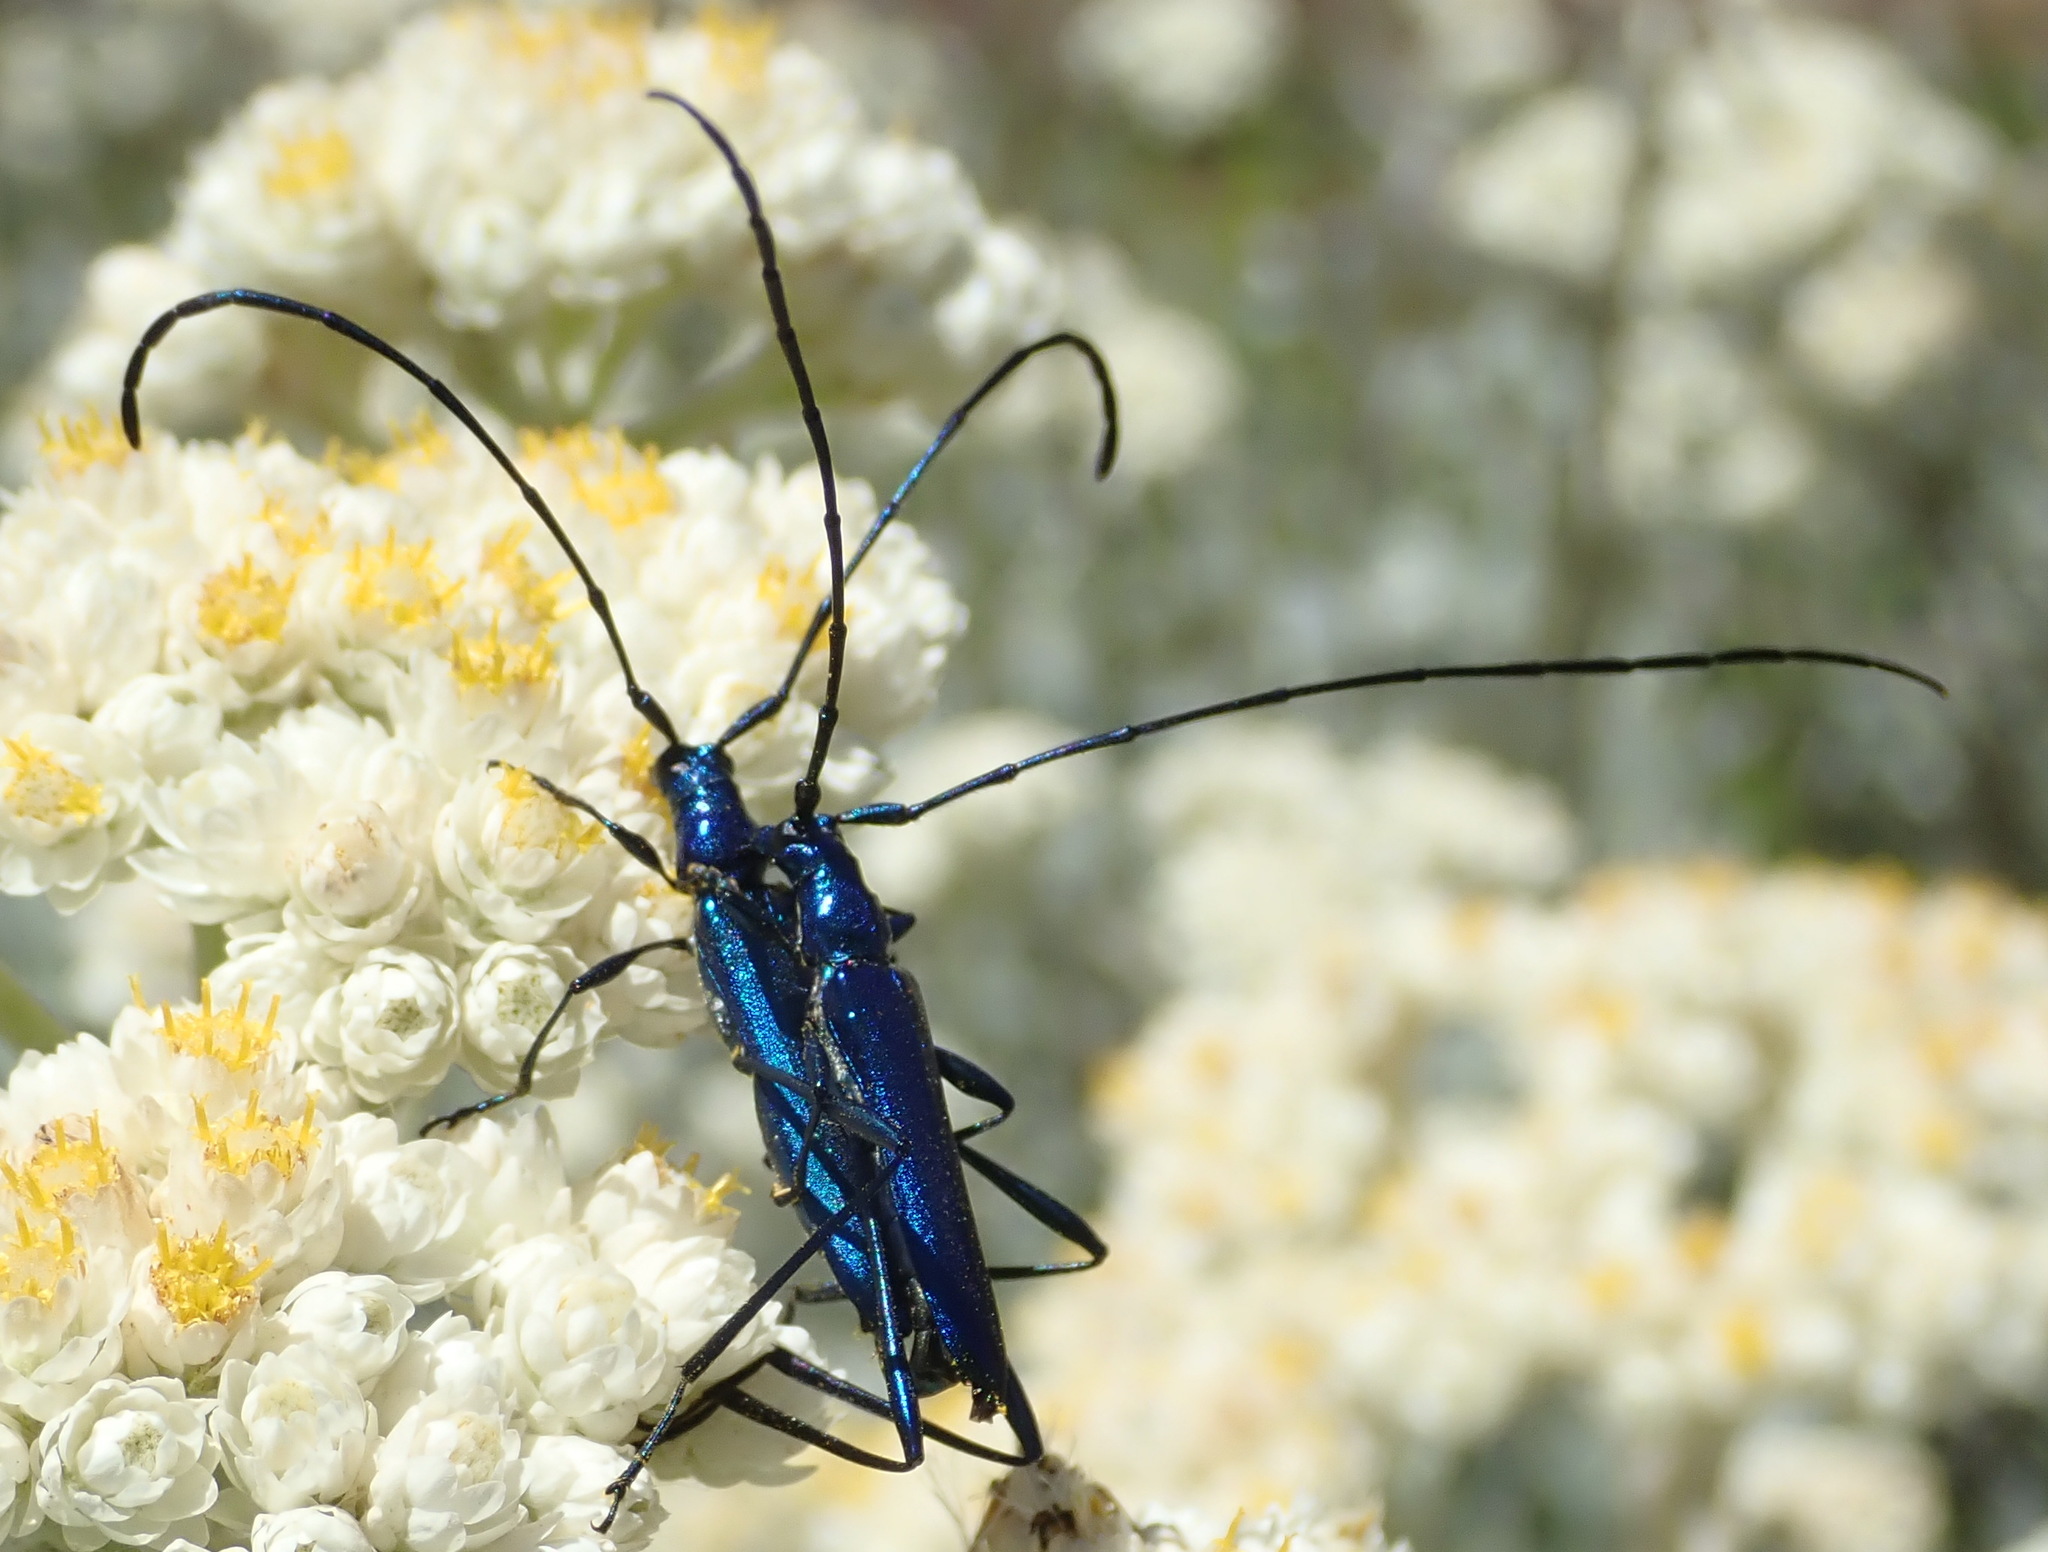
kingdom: Animalia
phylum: Arthropoda
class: Insecta
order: Coleoptera
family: Cerambycidae
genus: Promeces
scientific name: Promeces longipes
